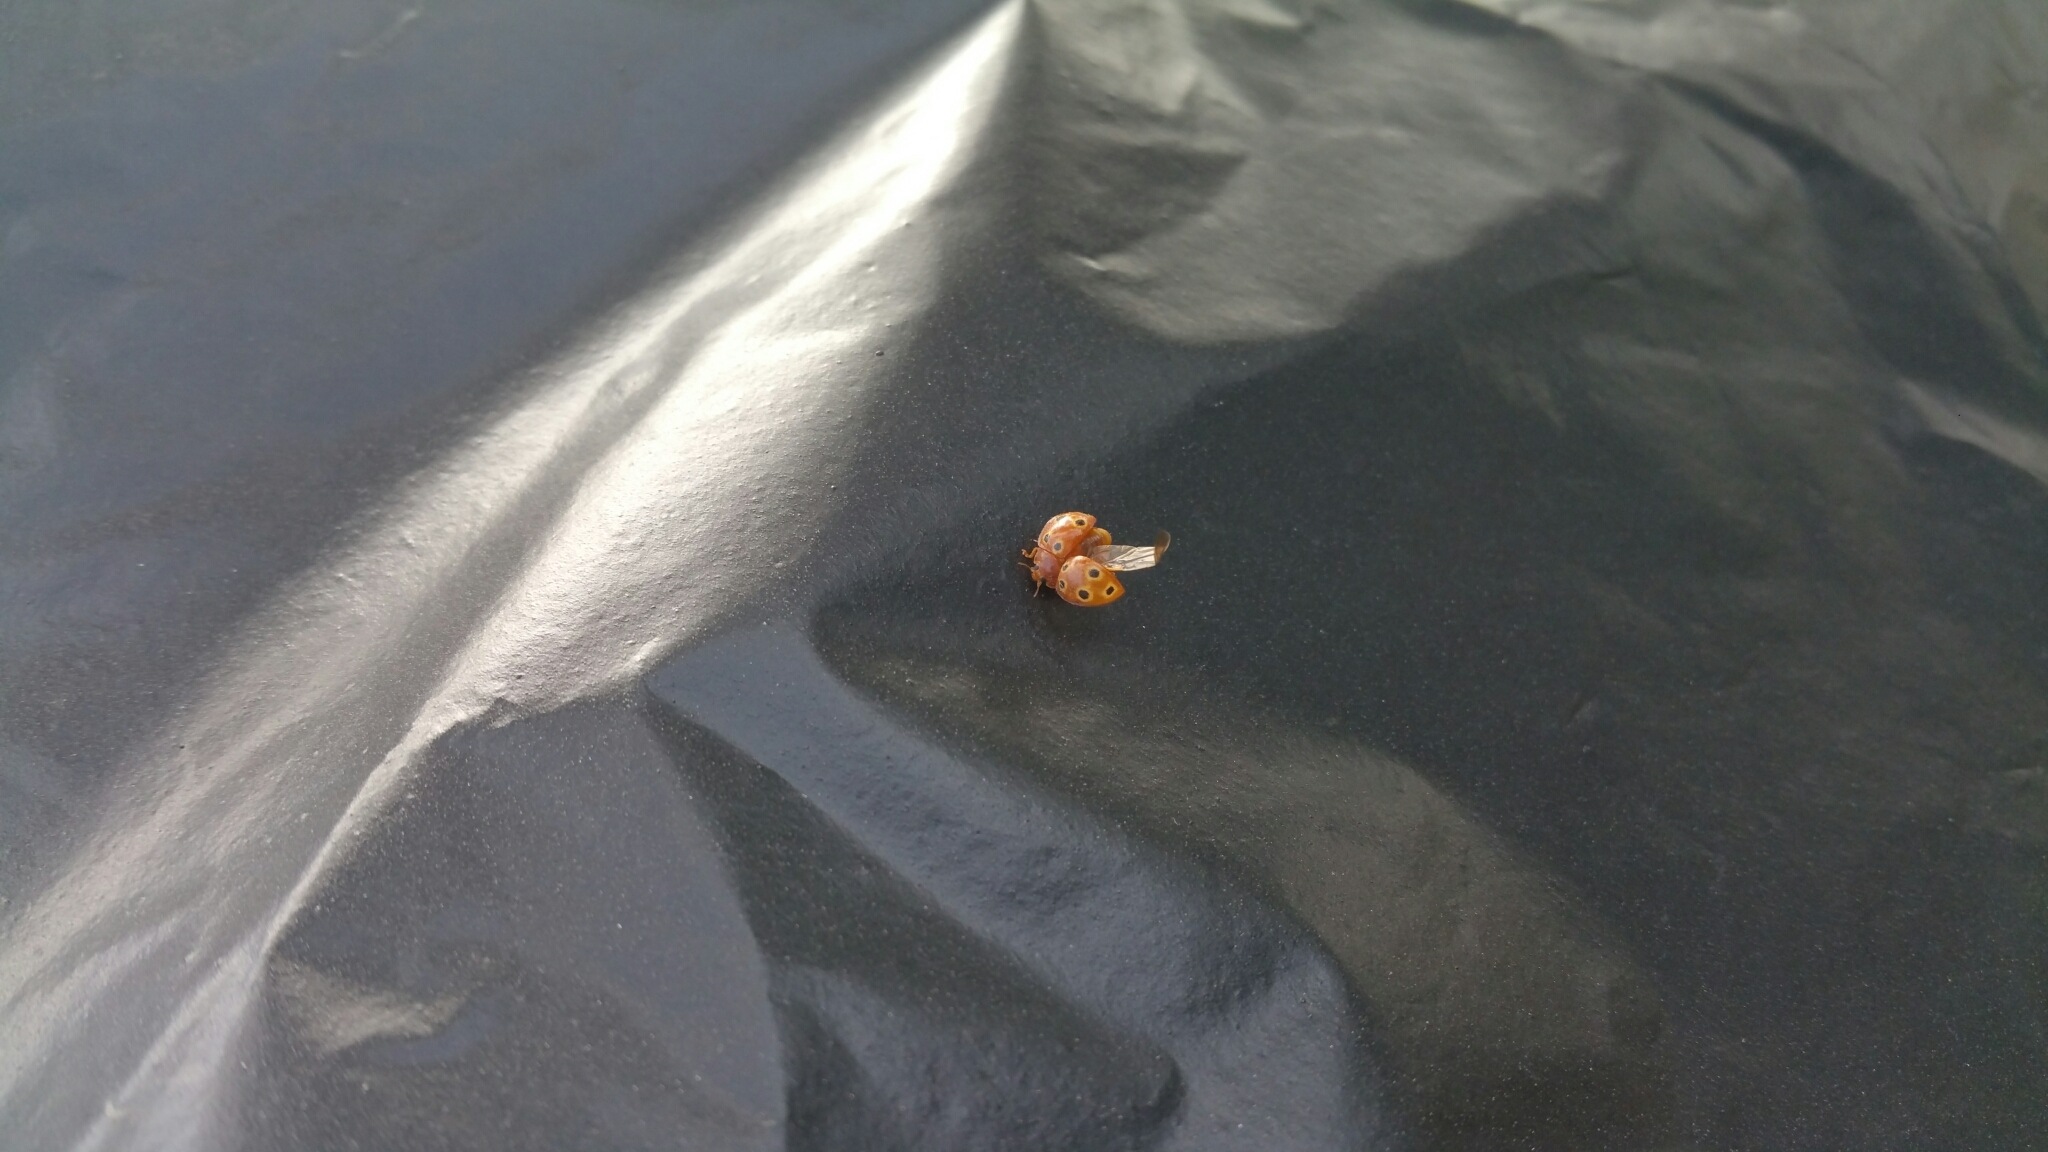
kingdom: Animalia
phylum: Arthropoda
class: Insecta
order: Coleoptera
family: Coccinellidae
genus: Microcaria
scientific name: Microcaria
